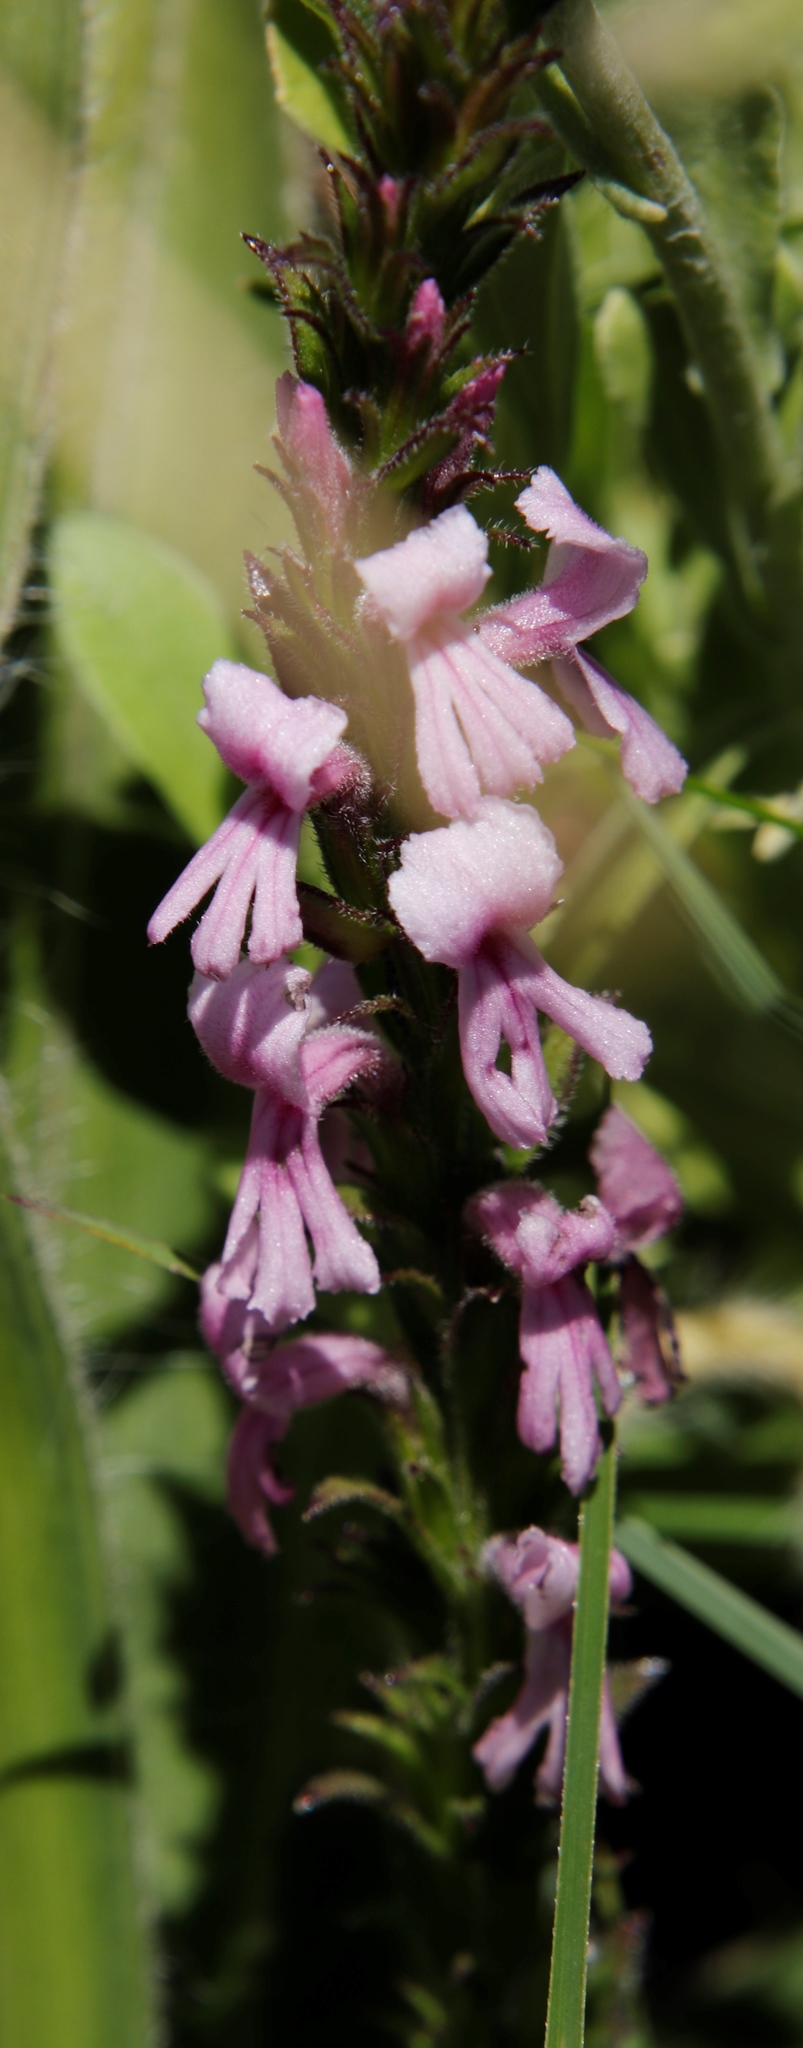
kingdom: Plantae
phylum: Tracheophyta
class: Magnoliopsida
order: Lamiales
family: Orobanchaceae
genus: Striga
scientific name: Striga bilabiata
